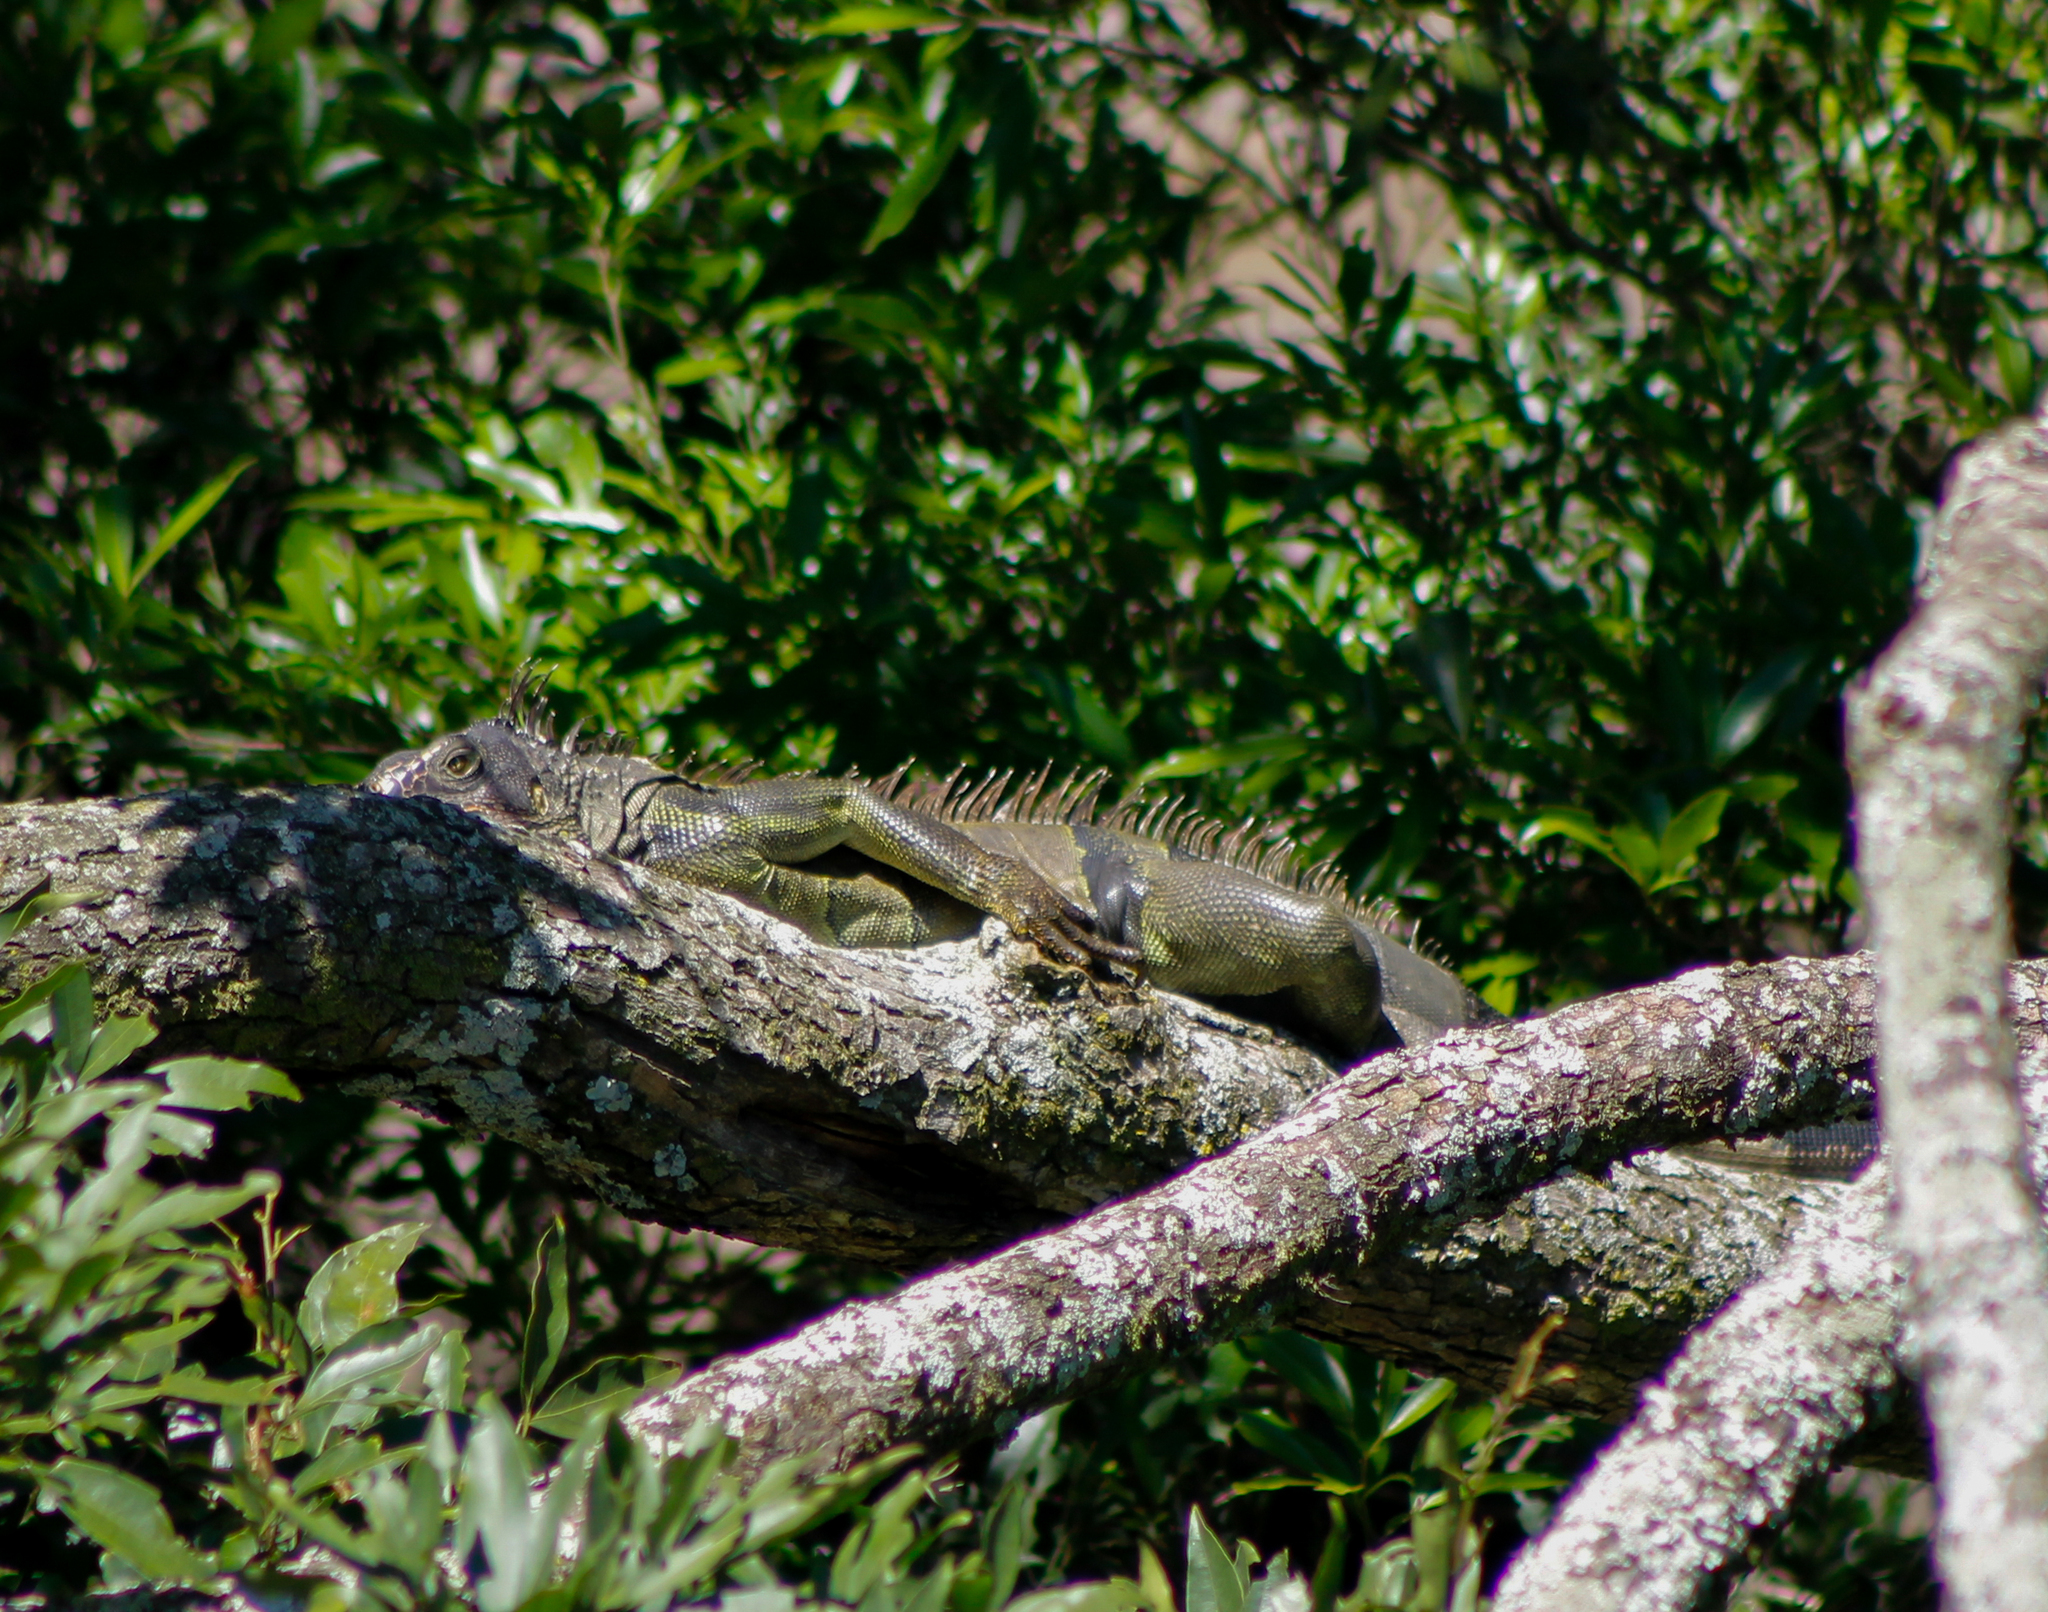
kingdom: Animalia
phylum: Chordata
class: Squamata
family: Iguanidae
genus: Iguana
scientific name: Iguana iguana
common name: Green iguana
